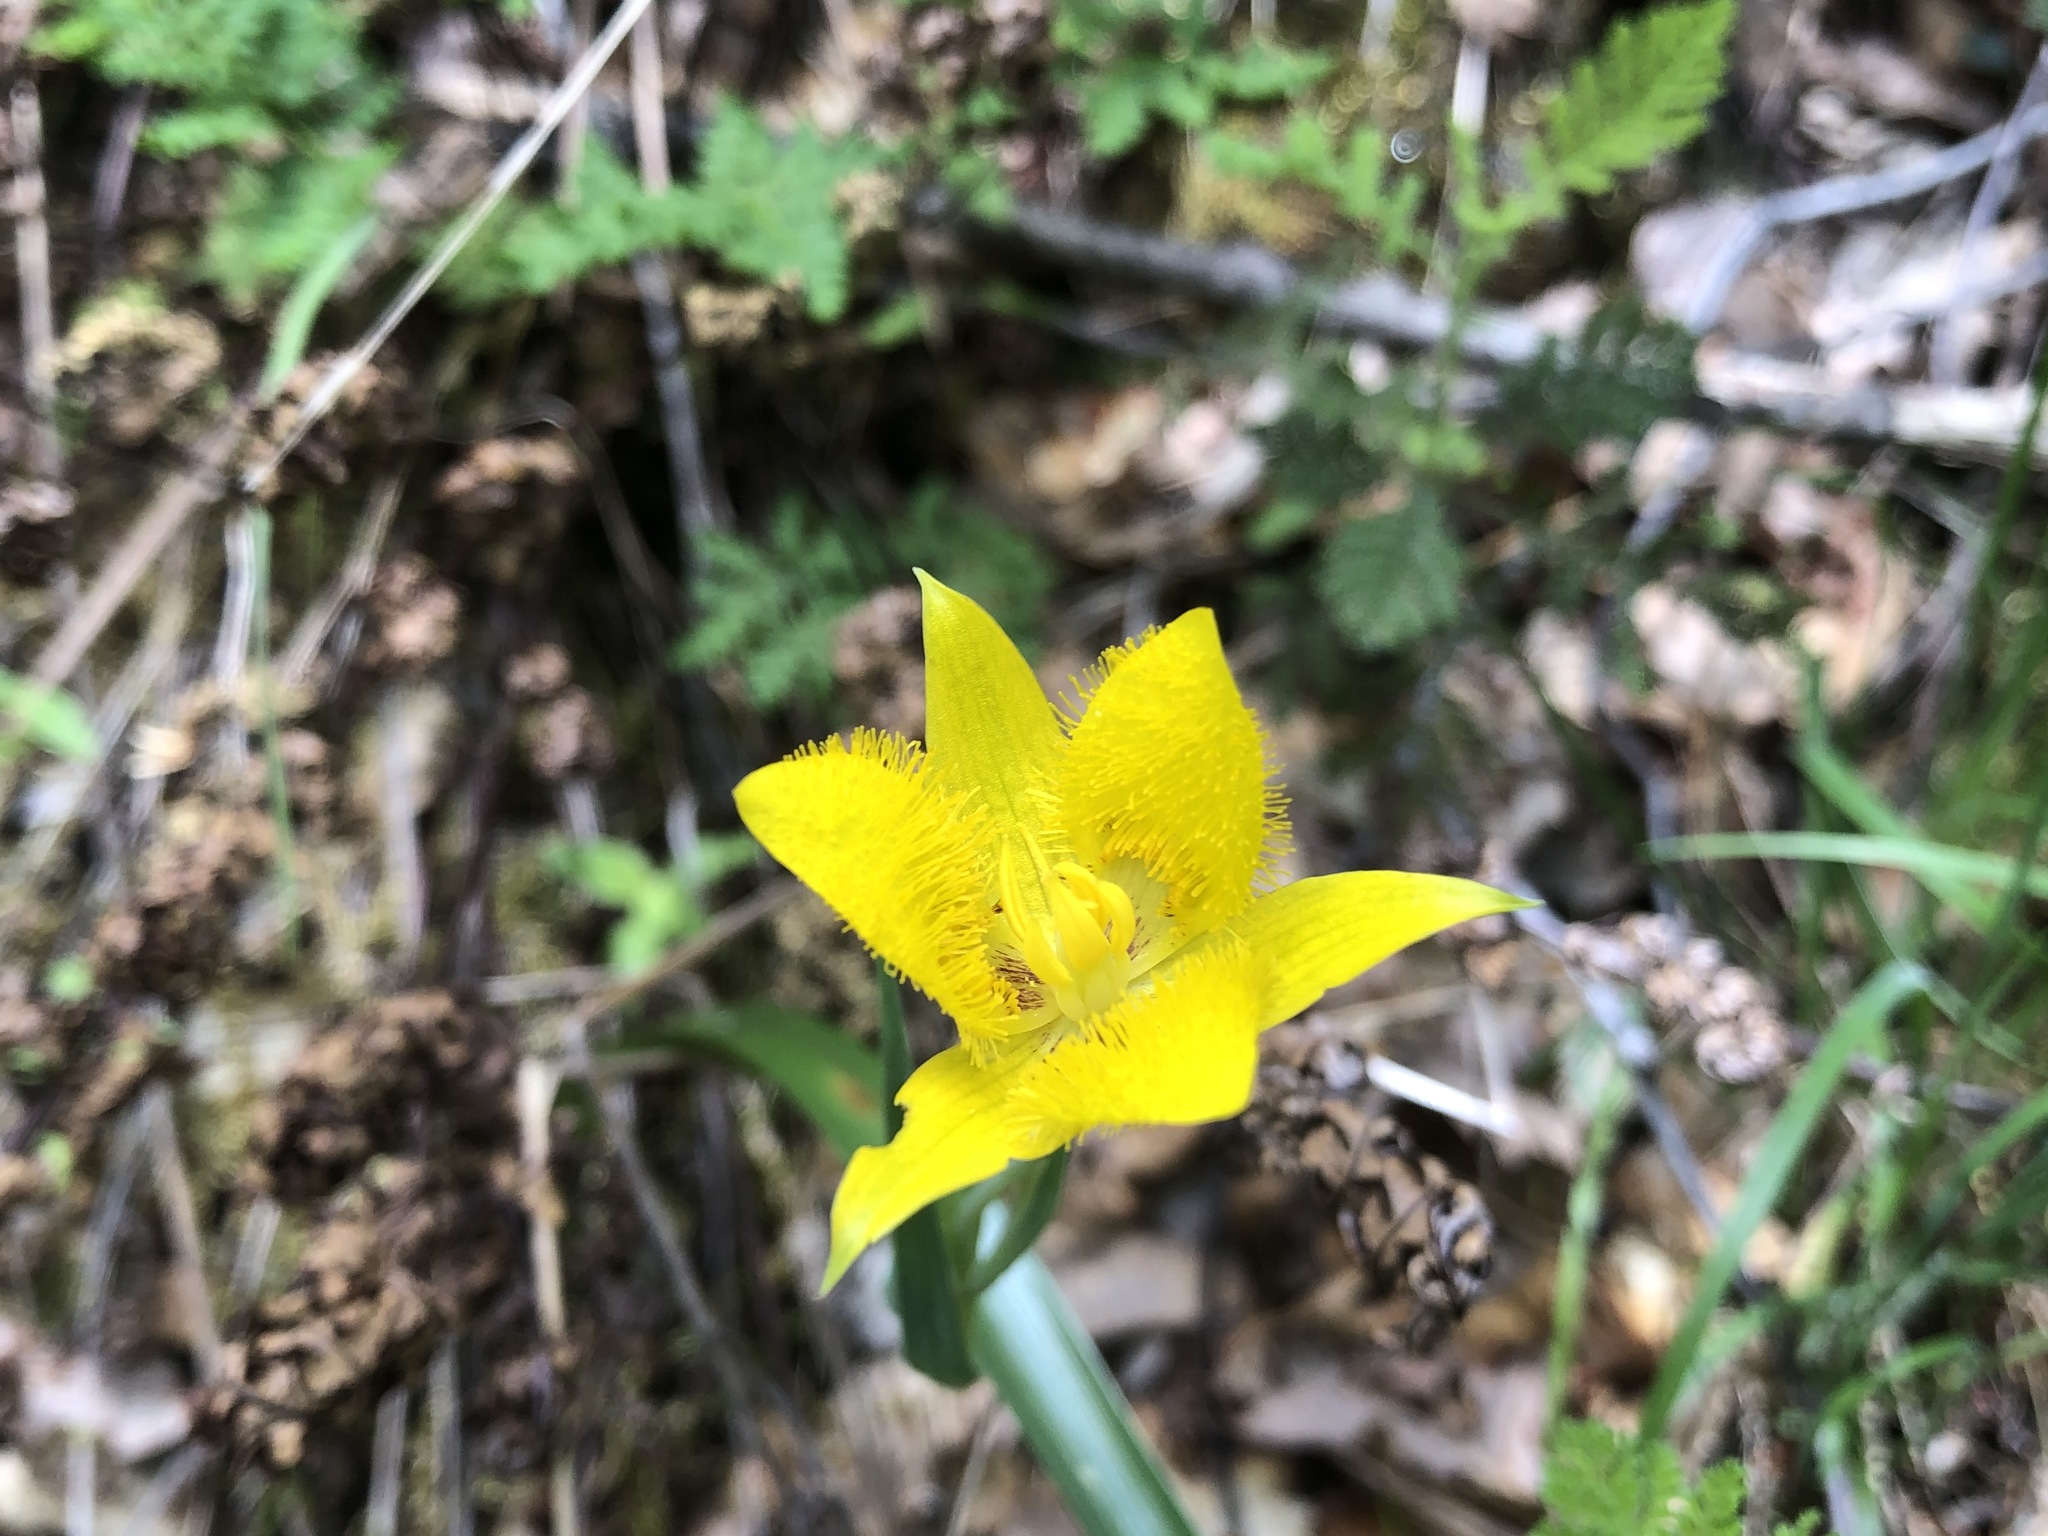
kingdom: Plantae
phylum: Tracheophyta
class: Liliopsida
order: Liliales
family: Liliaceae
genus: Calochortus
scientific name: Calochortus monophyllus
